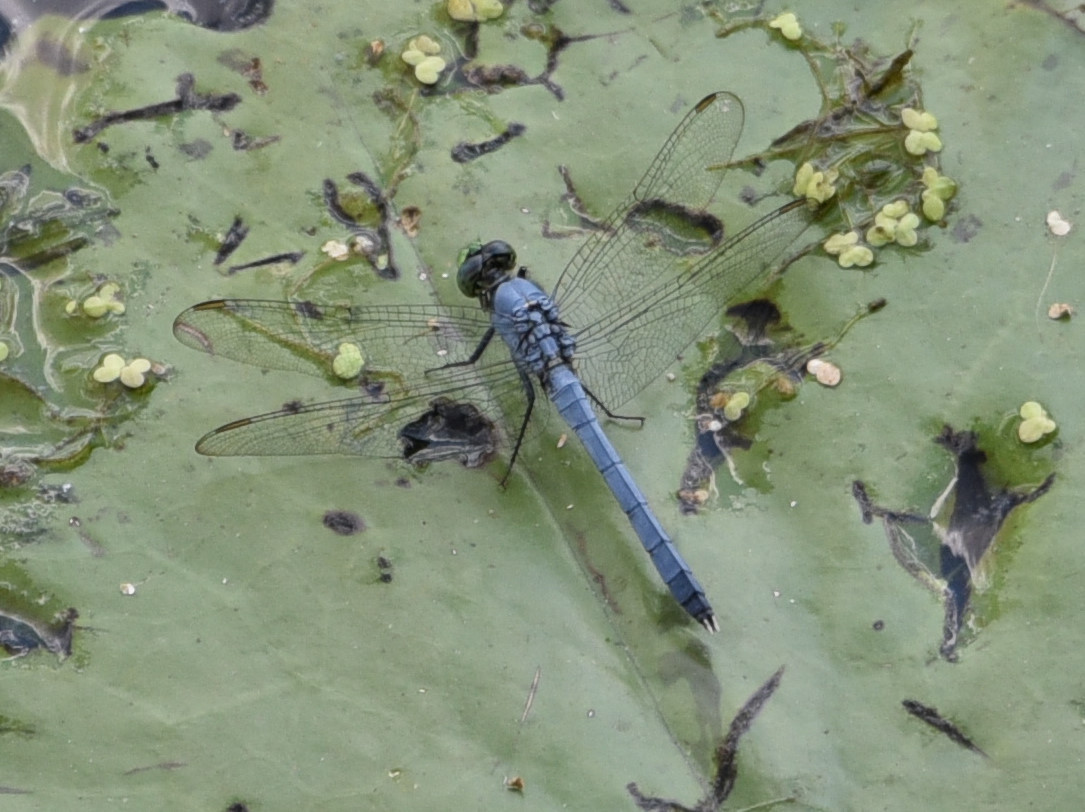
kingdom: Animalia
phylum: Arthropoda
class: Insecta
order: Odonata
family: Libellulidae
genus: Erythemis
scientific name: Erythemis simplicicollis
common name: Eastern pondhawk
